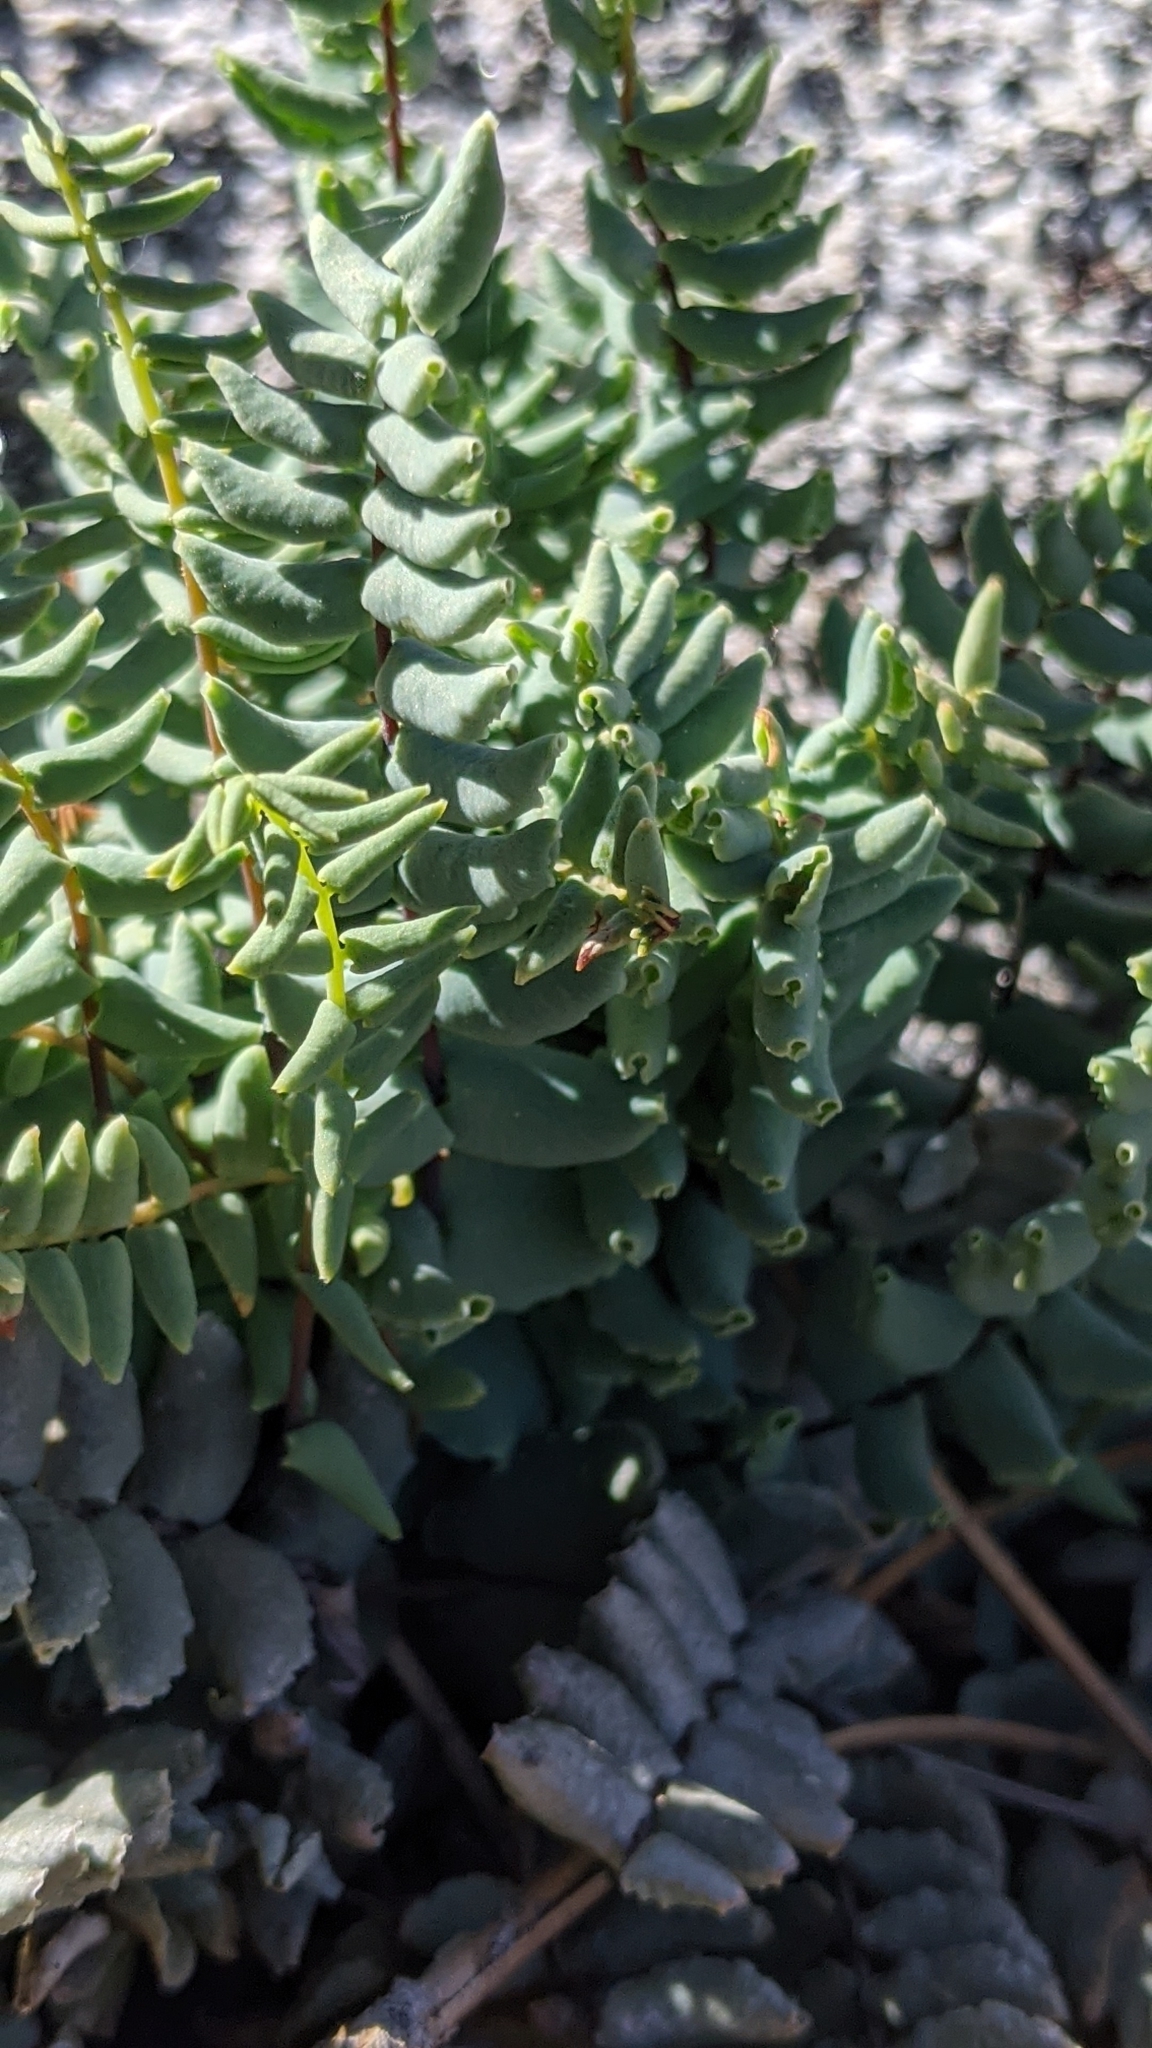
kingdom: Plantae
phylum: Tracheophyta
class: Polypodiopsida
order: Polypodiales
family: Pteridaceae
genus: Pellaea
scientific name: Pellaea bridgesii
